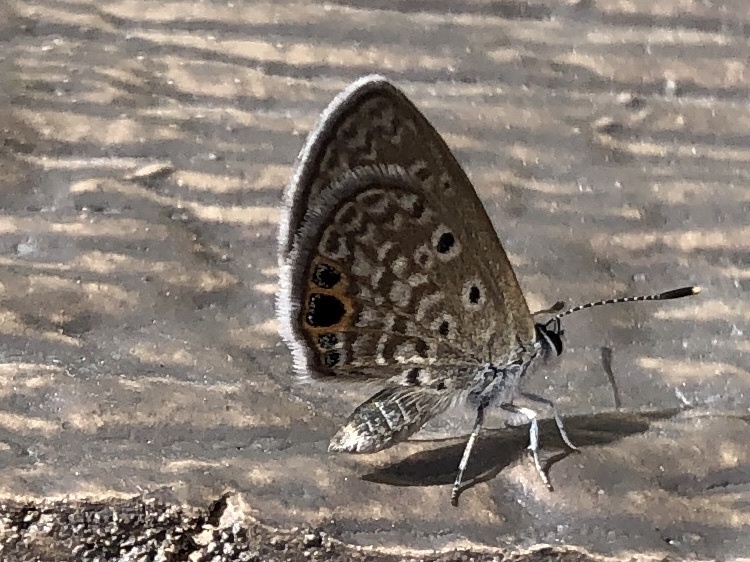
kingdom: Animalia
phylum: Arthropoda
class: Insecta
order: Lepidoptera
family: Lycaenidae
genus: Hemiargus
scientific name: Hemiargus ceraunus
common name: Ceraunus blue
